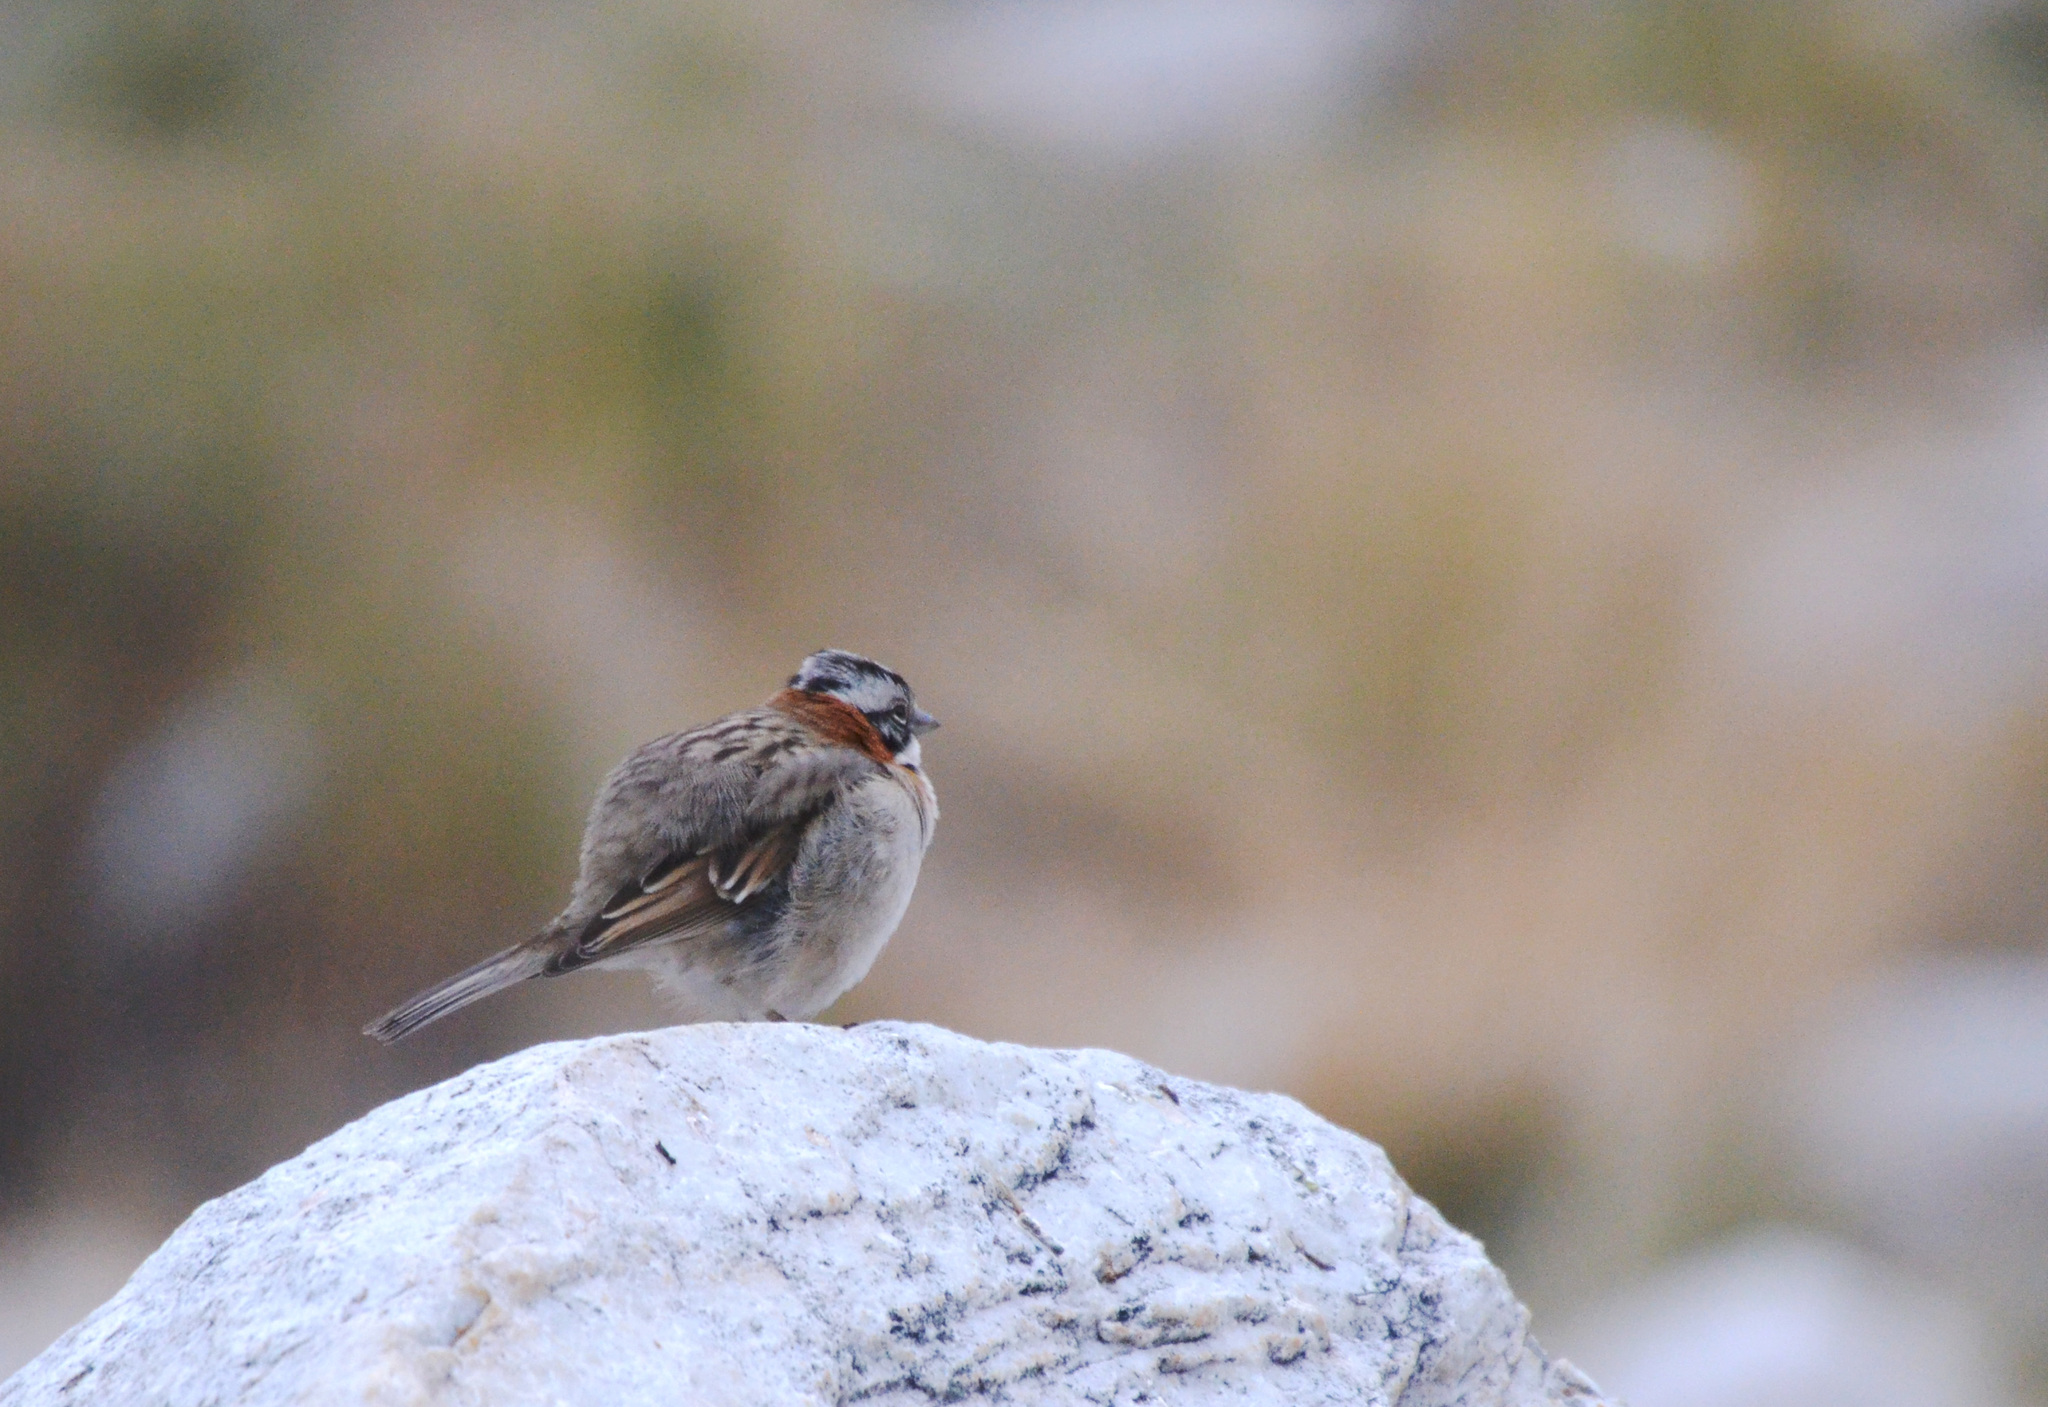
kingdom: Animalia
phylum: Chordata
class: Aves
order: Passeriformes
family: Passerellidae
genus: Zonotrichia
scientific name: Zonotrichia capensis
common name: Rufous-collared sparrow
